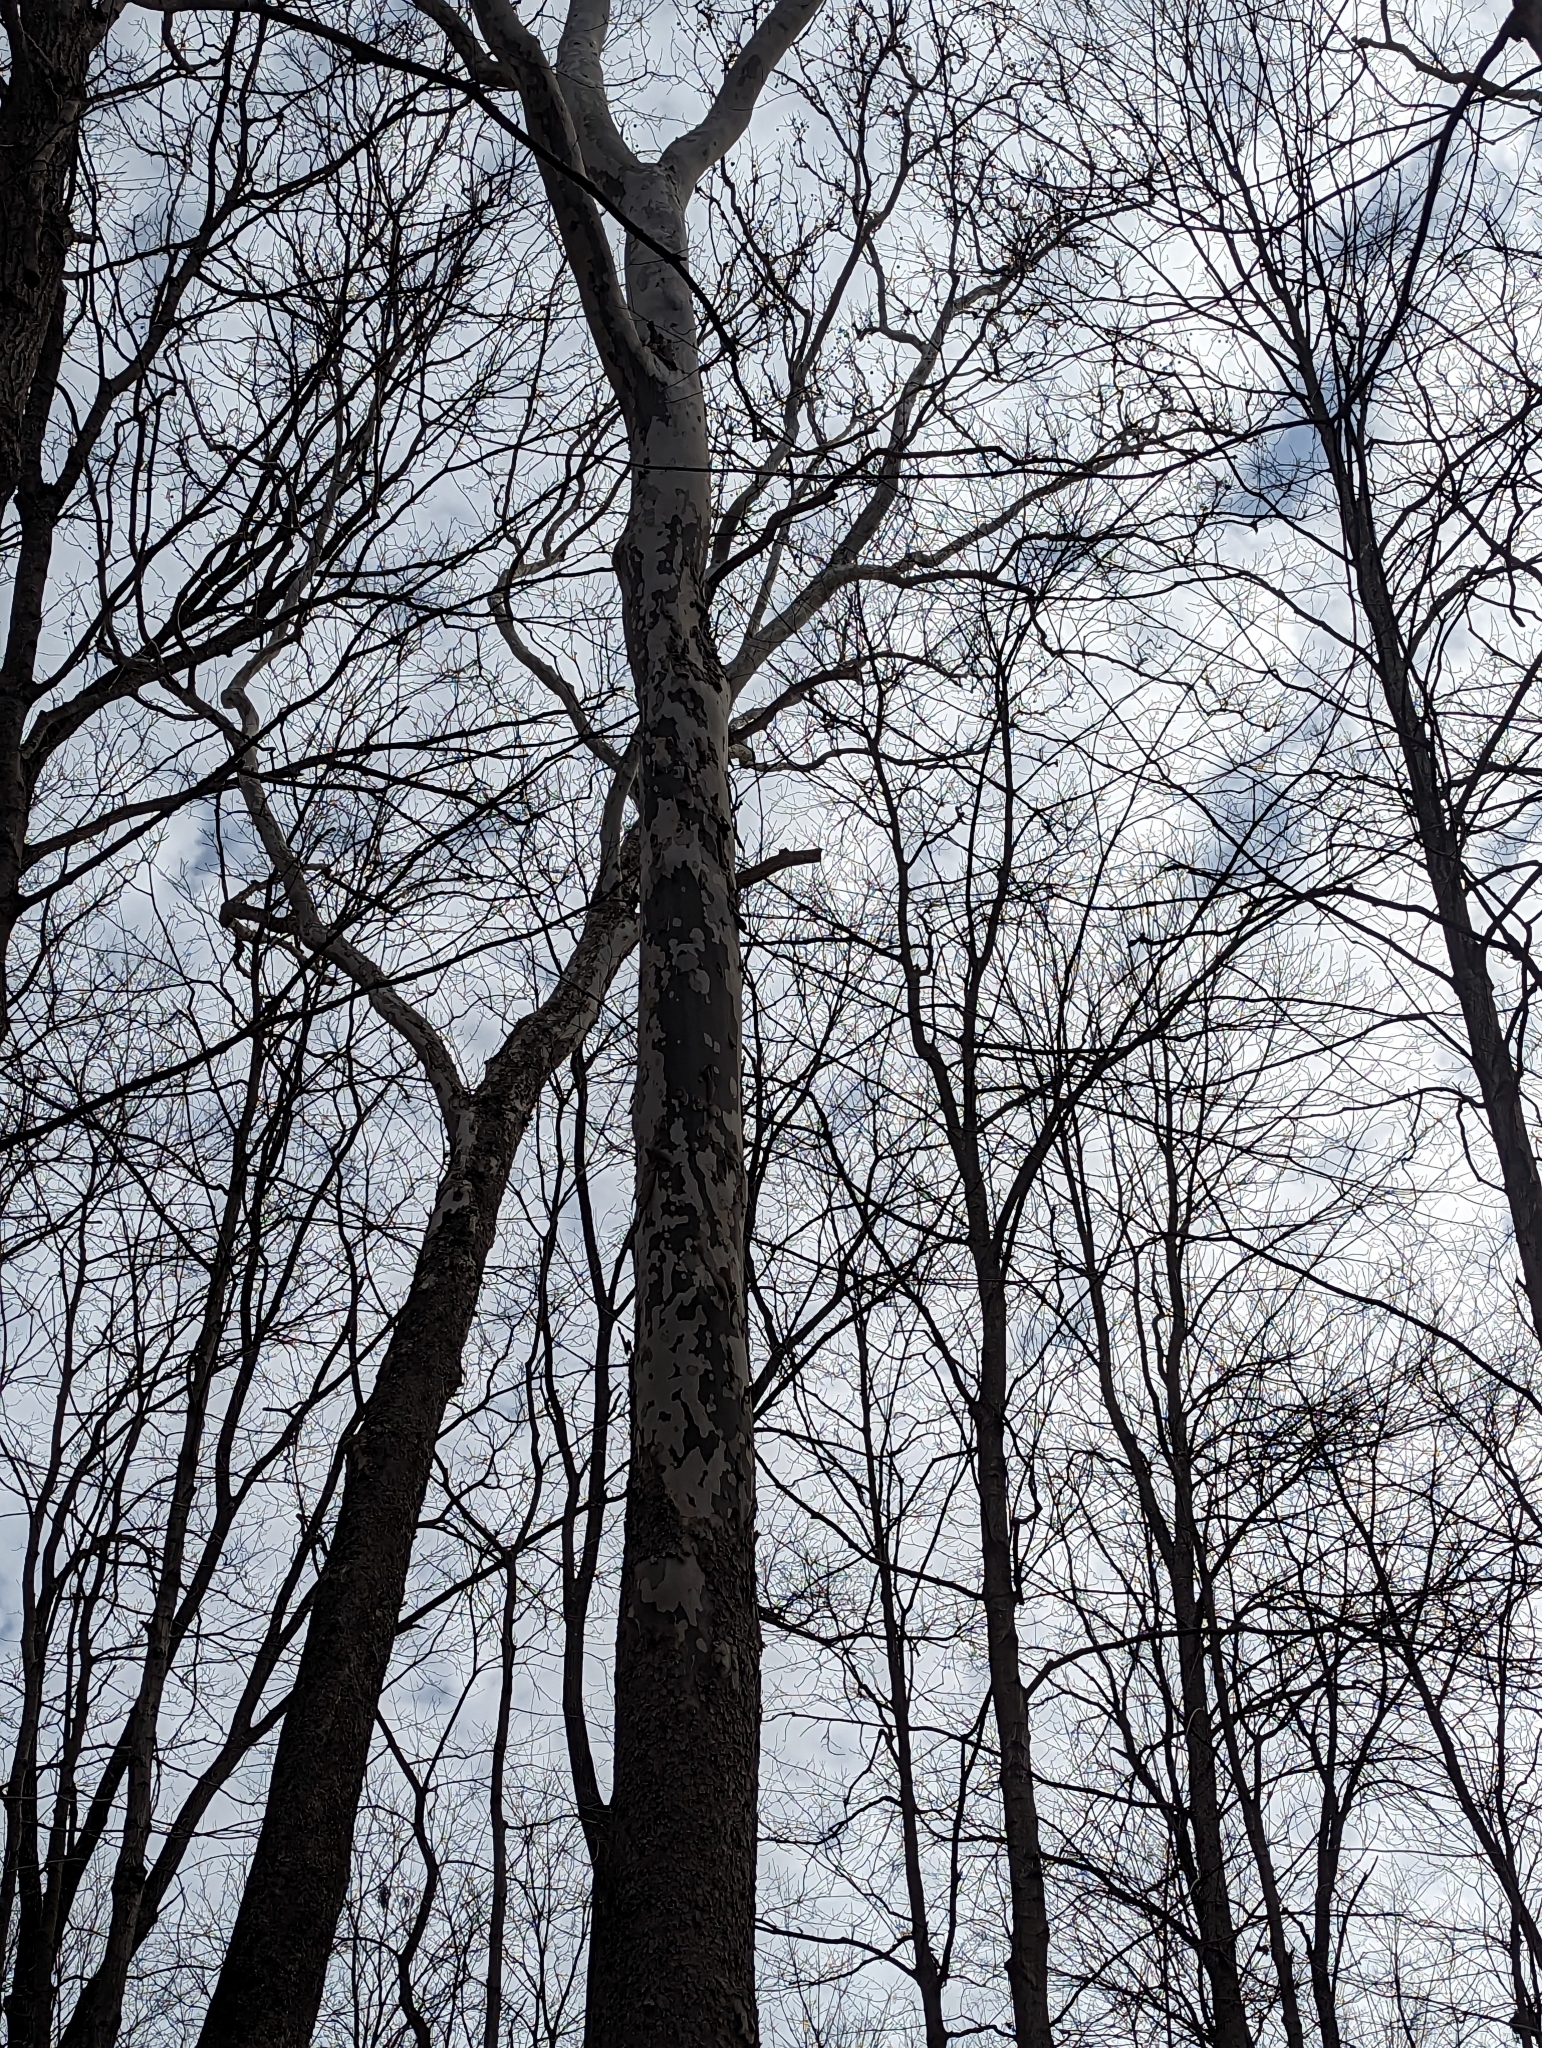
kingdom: Plantae
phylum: Tracheophyta
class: Magnoliopsida
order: Proteales
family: Platanaceae
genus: Platanus
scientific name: Platanus occidentalis
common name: American sycamore
